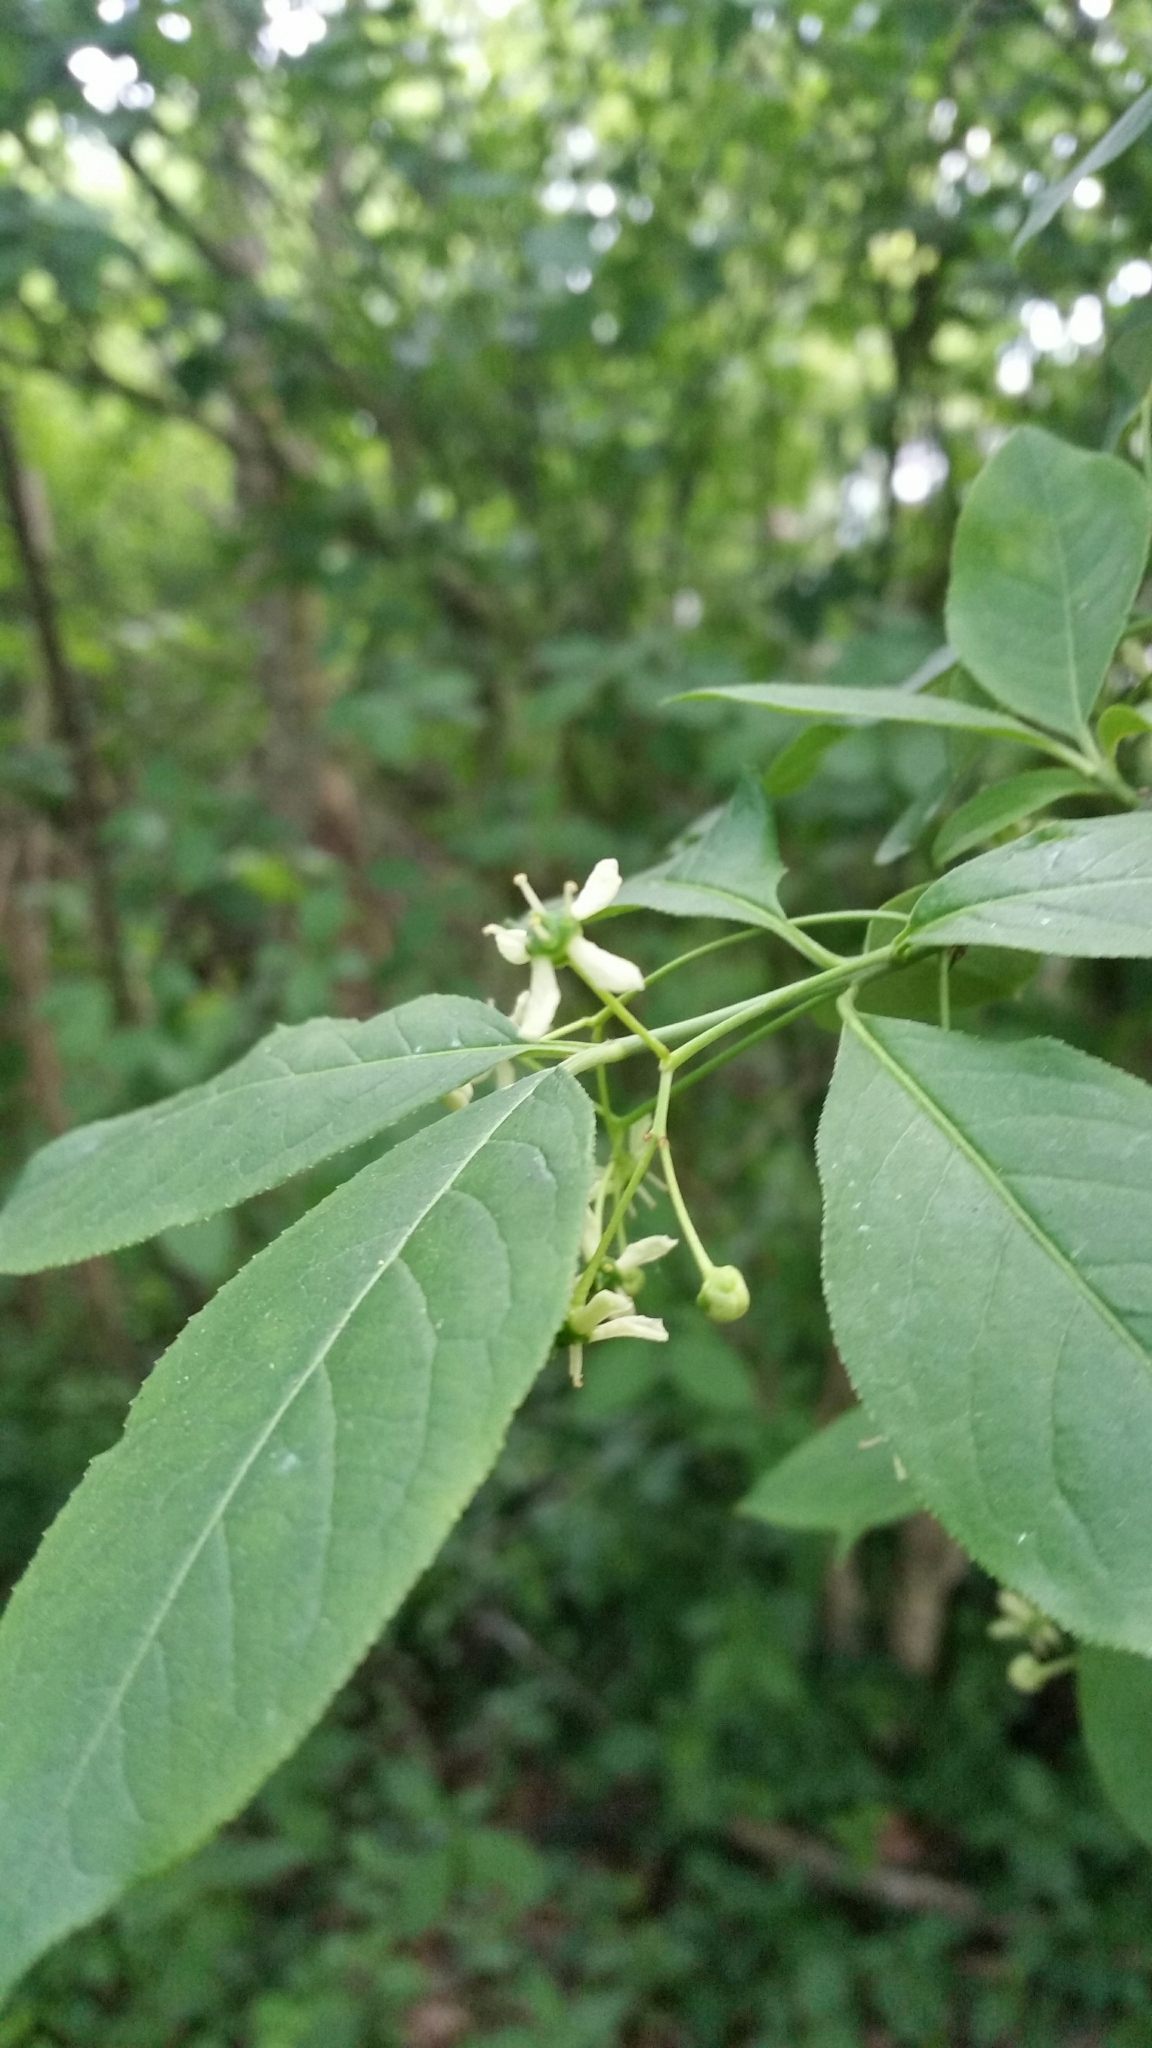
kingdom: Plantae
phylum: Tracheophyta
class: Magnoliopsida
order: Celastrales
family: Celastraceae
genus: Euonymus
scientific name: Euonymus europaeus
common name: Spindle
